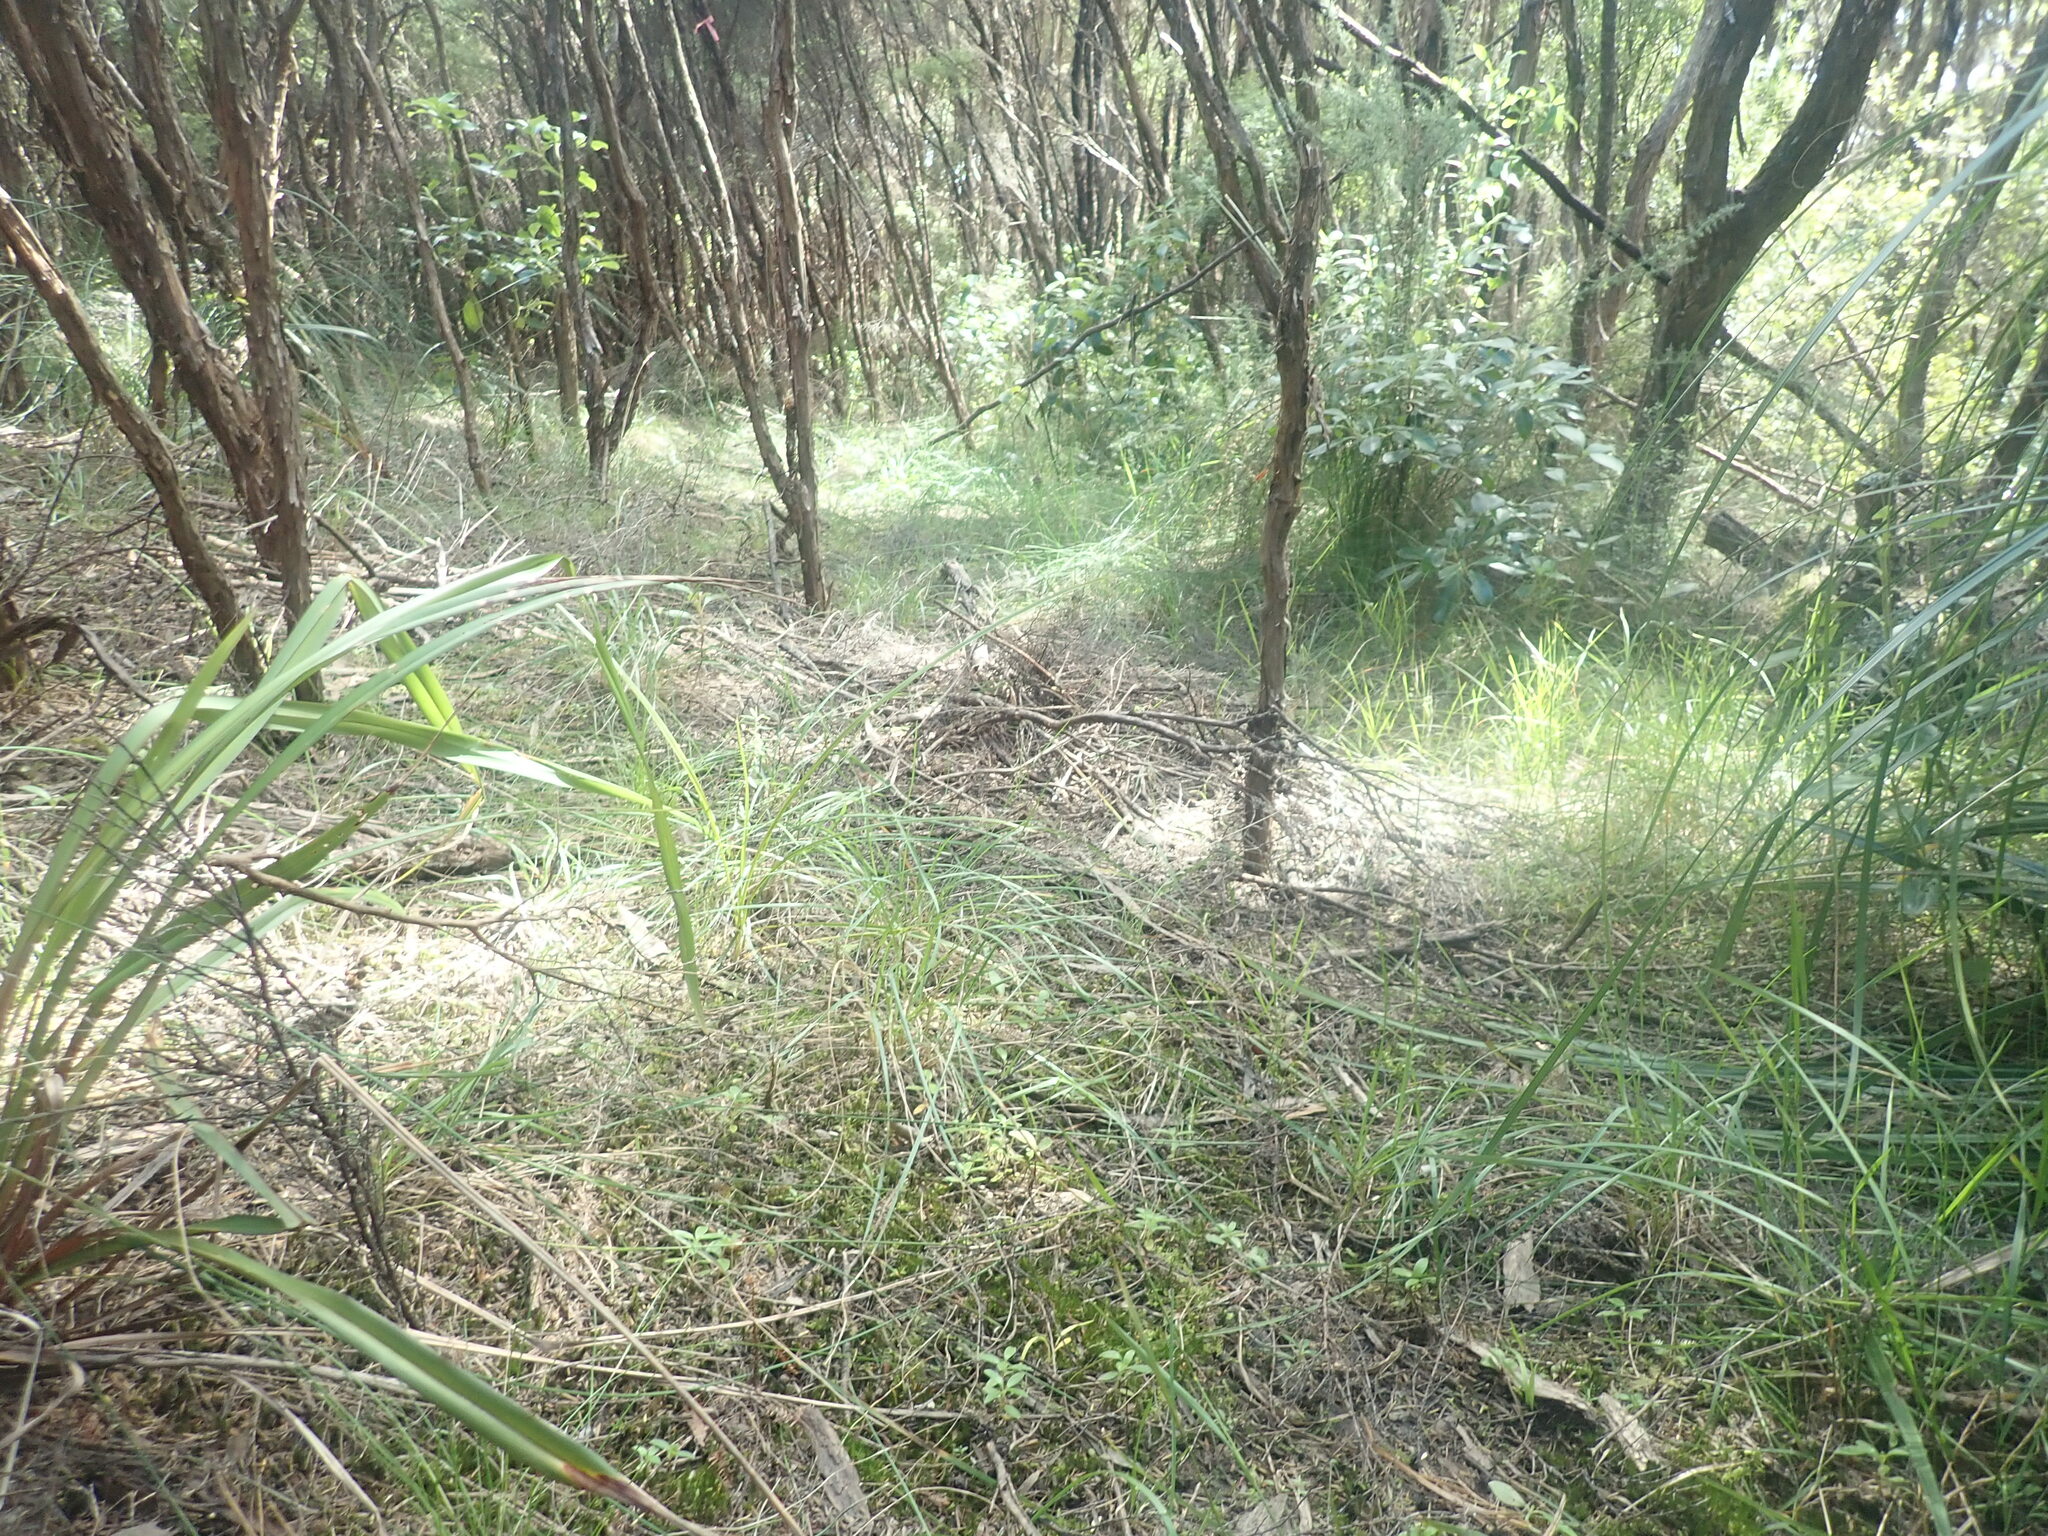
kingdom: Plantae
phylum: Tracheophyta
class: Magnoliopsida
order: Myrtales
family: Myrtaceae
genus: Leptospermum
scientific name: Leptospermum scoparium
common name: Broom tea-tree
